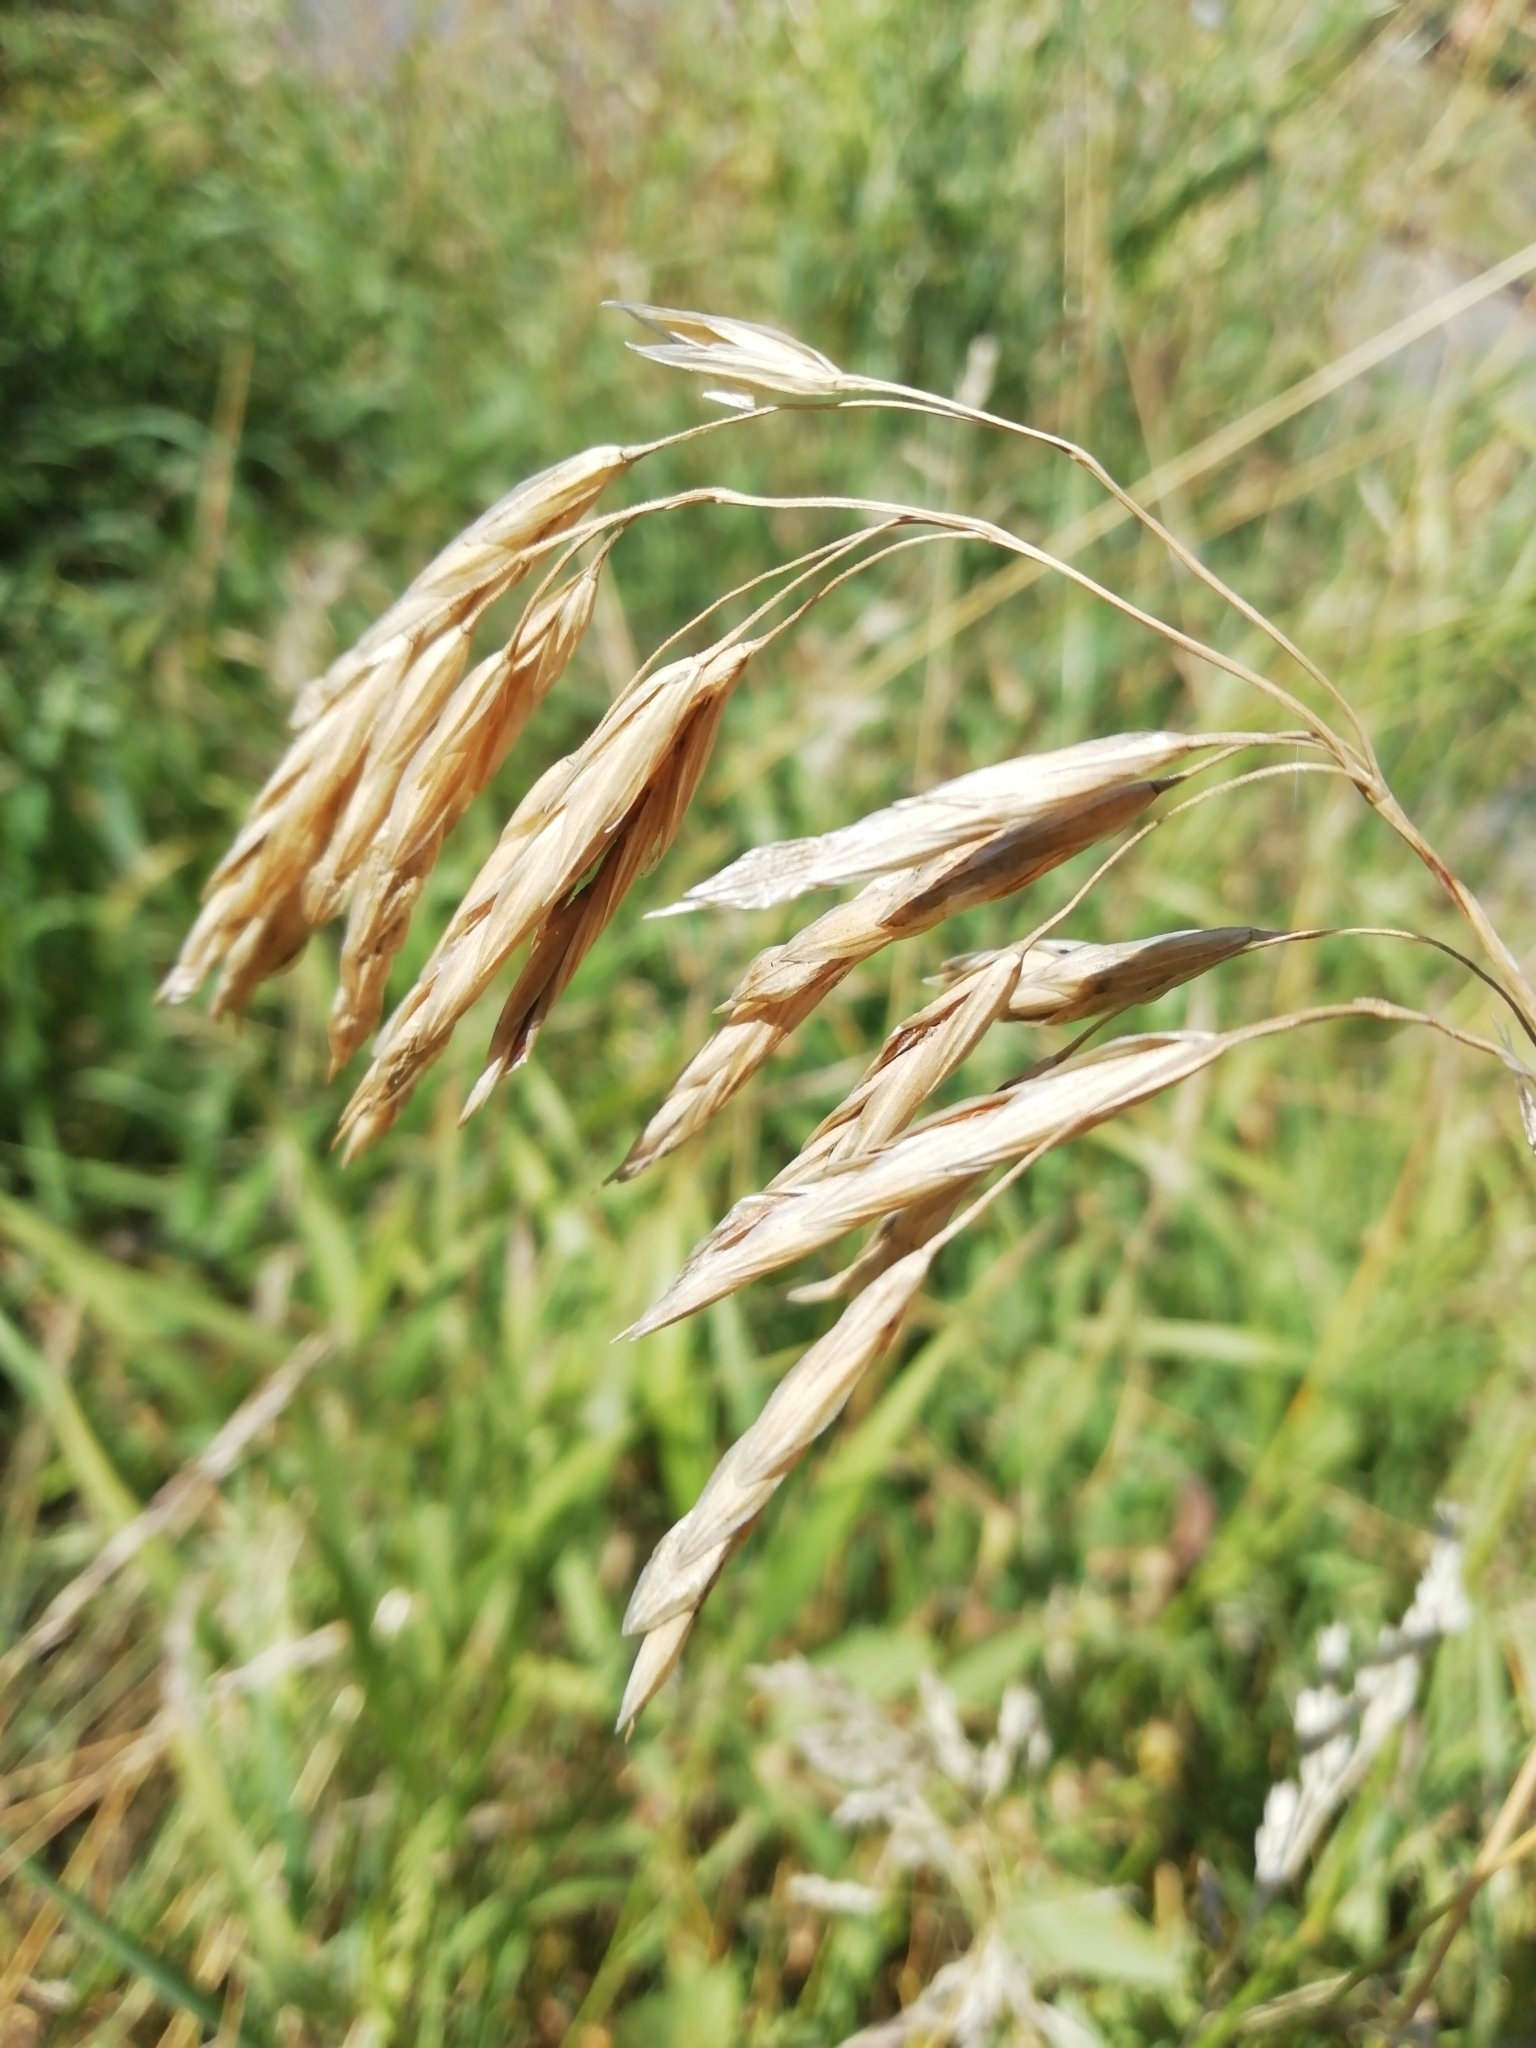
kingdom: Plantae
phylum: Tracheophyta
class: Liliopsida
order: Poales
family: Poaceae
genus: Bromus
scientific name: Bromus inermis
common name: Smooth brome
